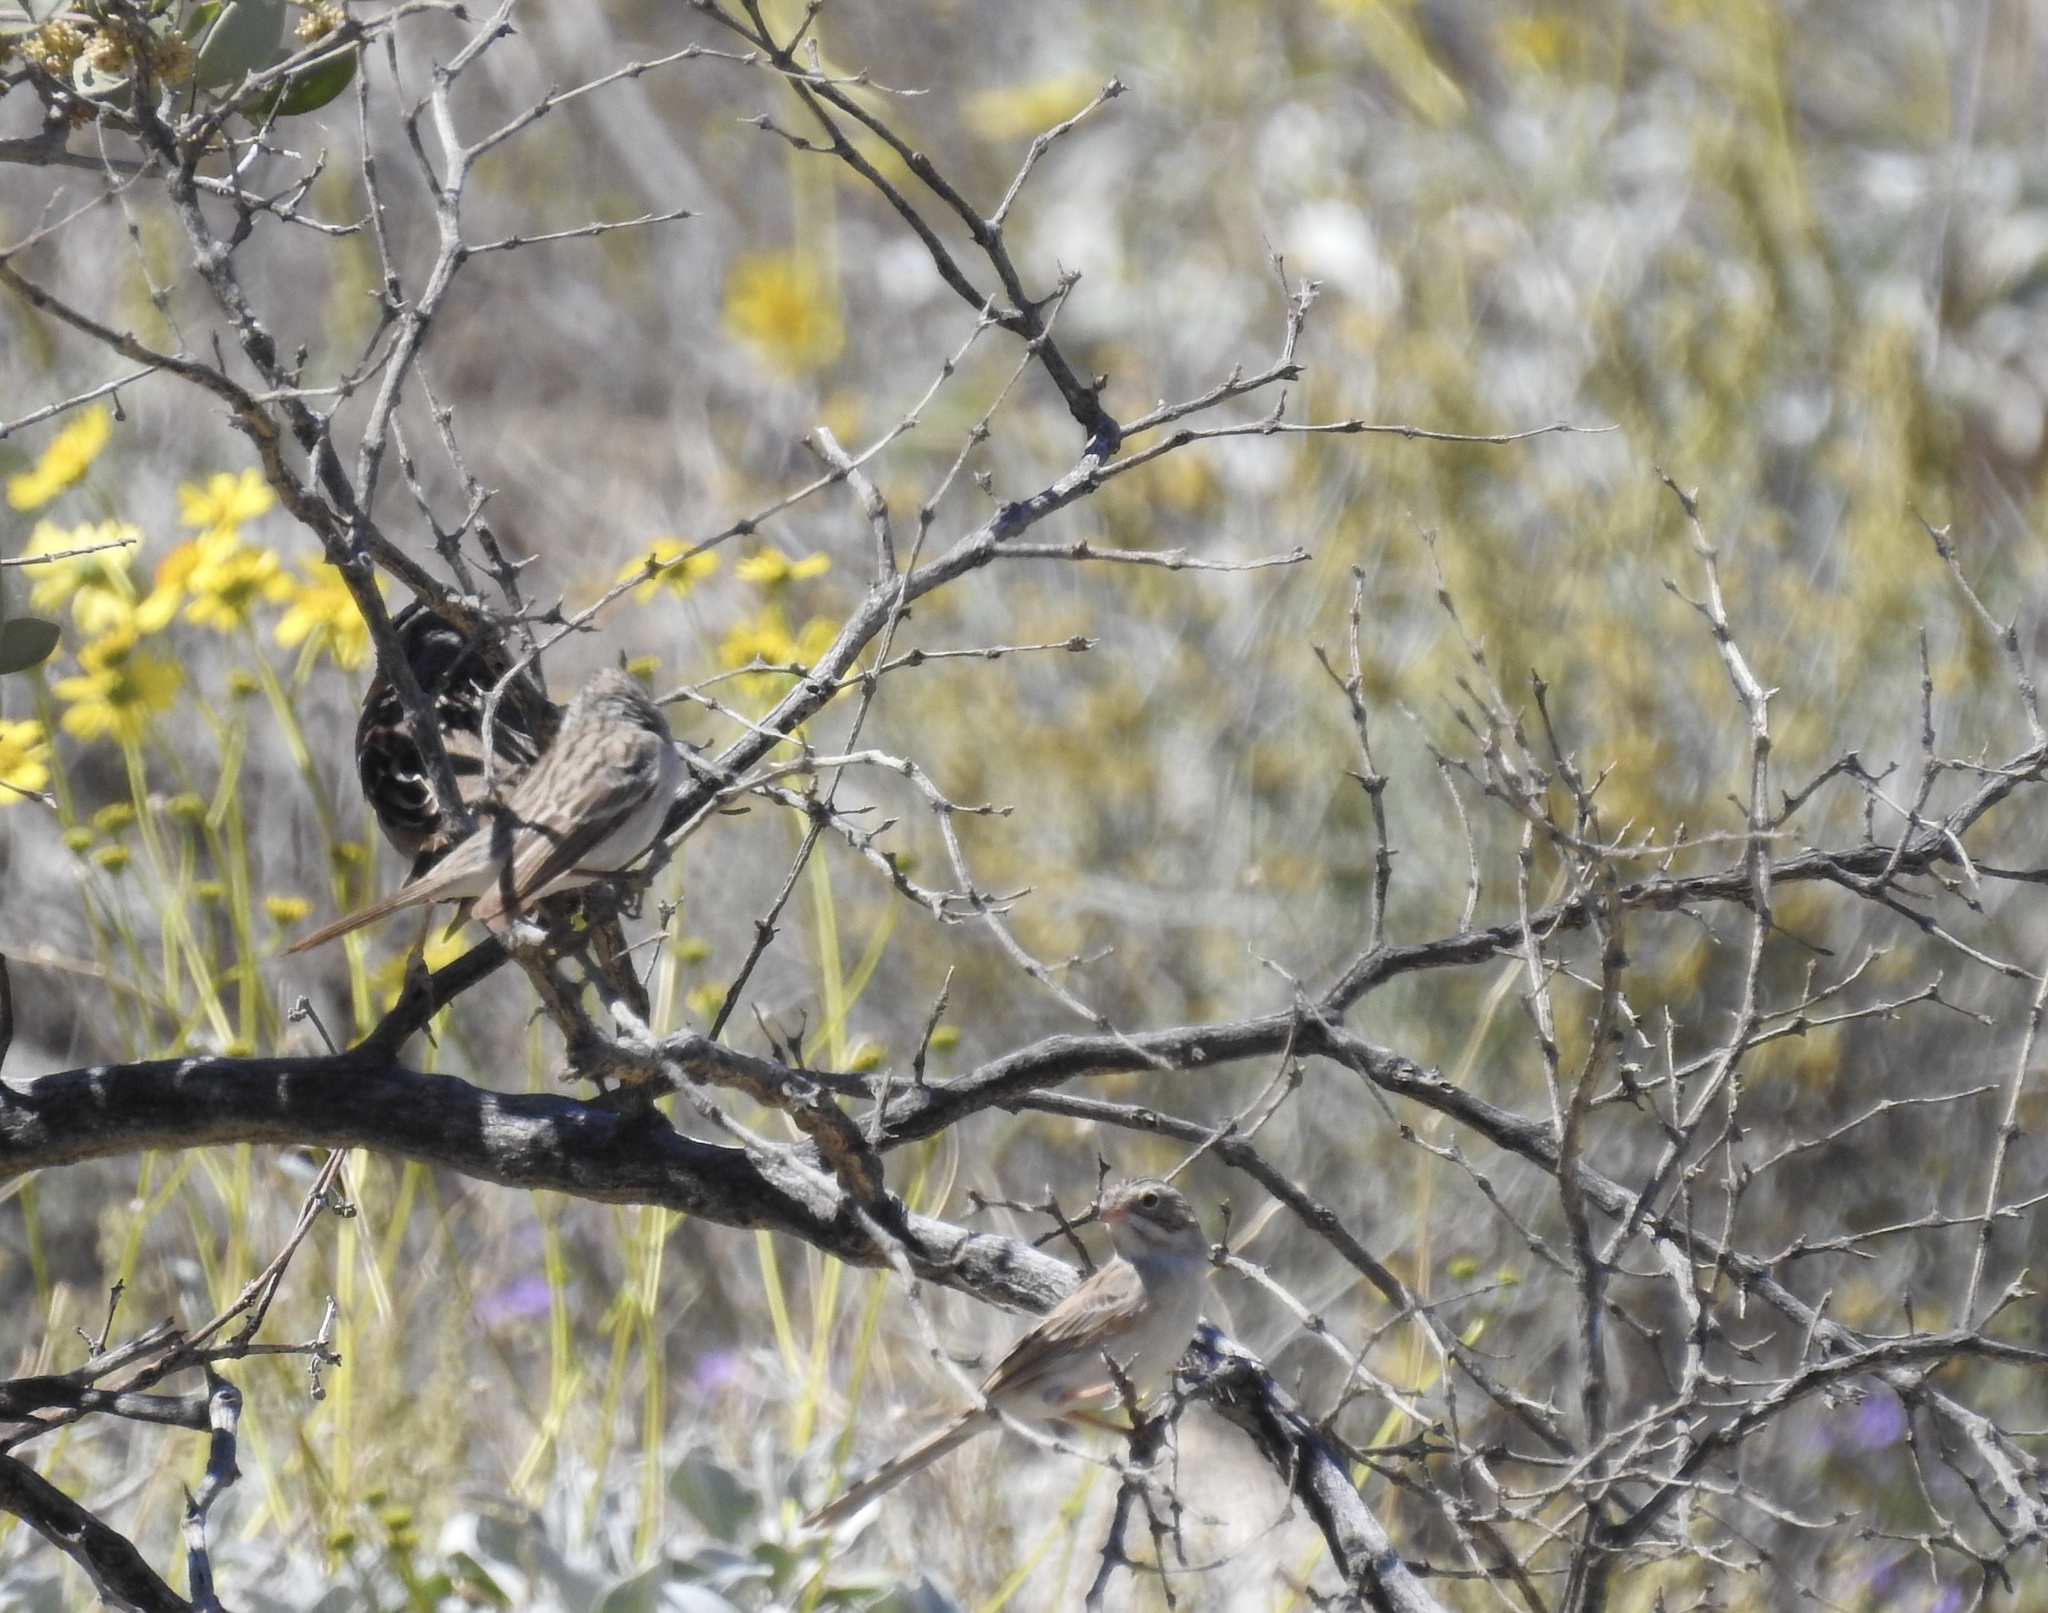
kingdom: Animalia
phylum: Chordata
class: Aves
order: Passeriformes
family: Passerellidae
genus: Zonotrichia
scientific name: Zonotrichia leucophrys
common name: White-crowned sparrow
